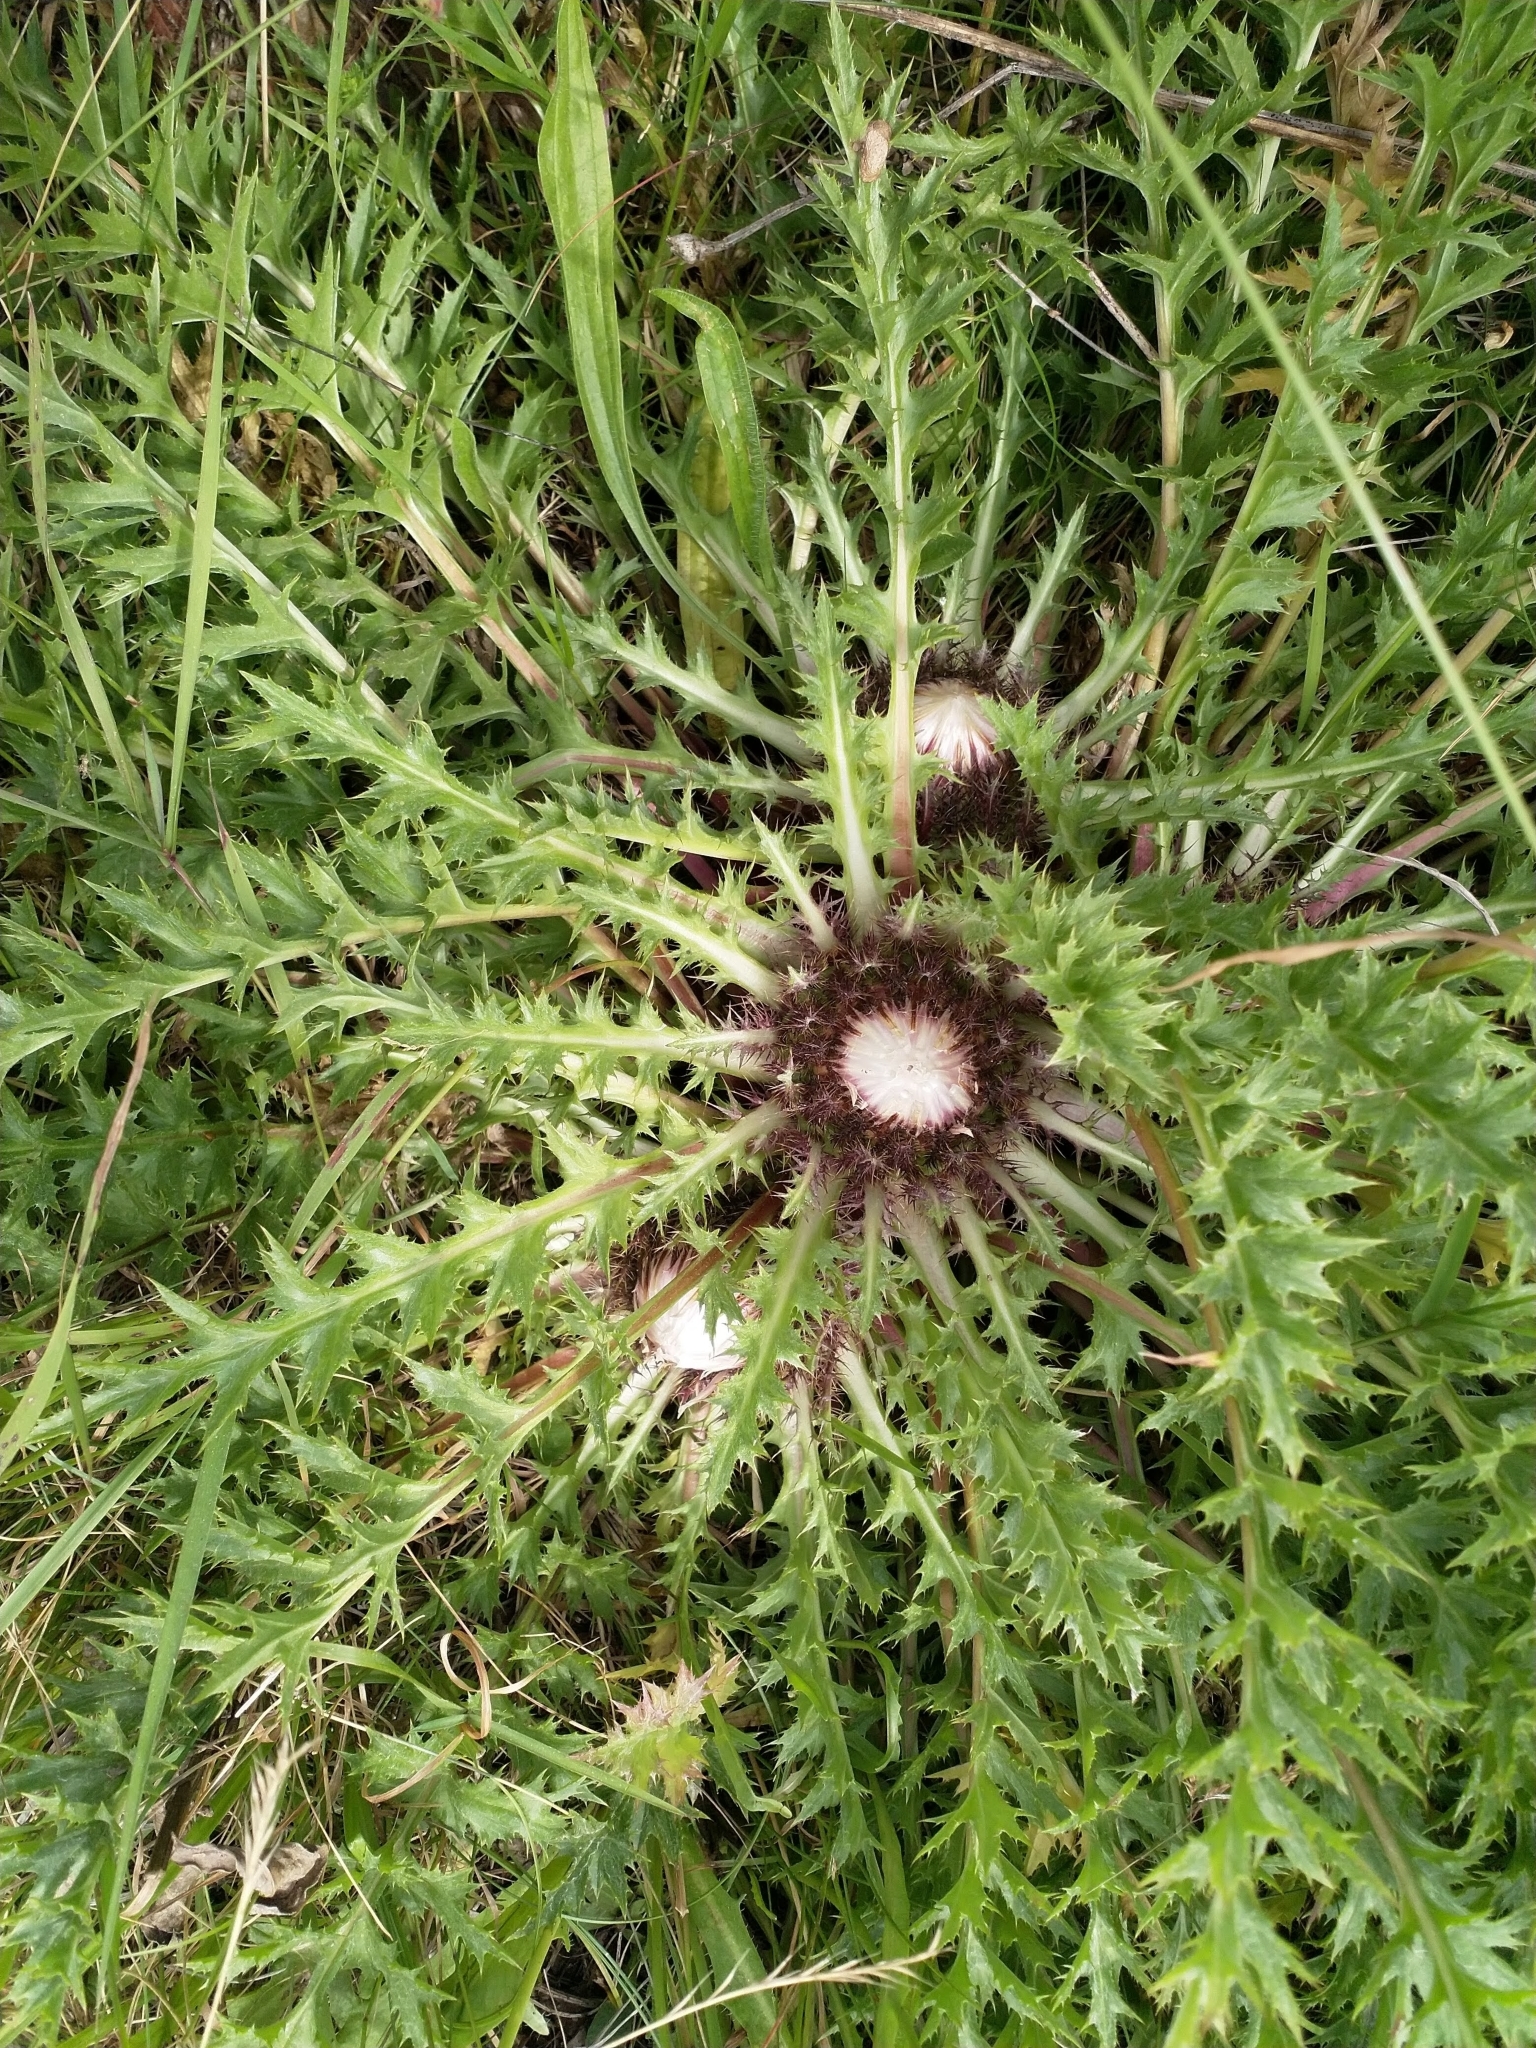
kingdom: Plantae
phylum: Tracheophyta
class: Magnoliopsida
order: Asterales
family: Asteraceae
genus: Carlina
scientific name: Carlina acaulis
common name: Stemless carline thistle
